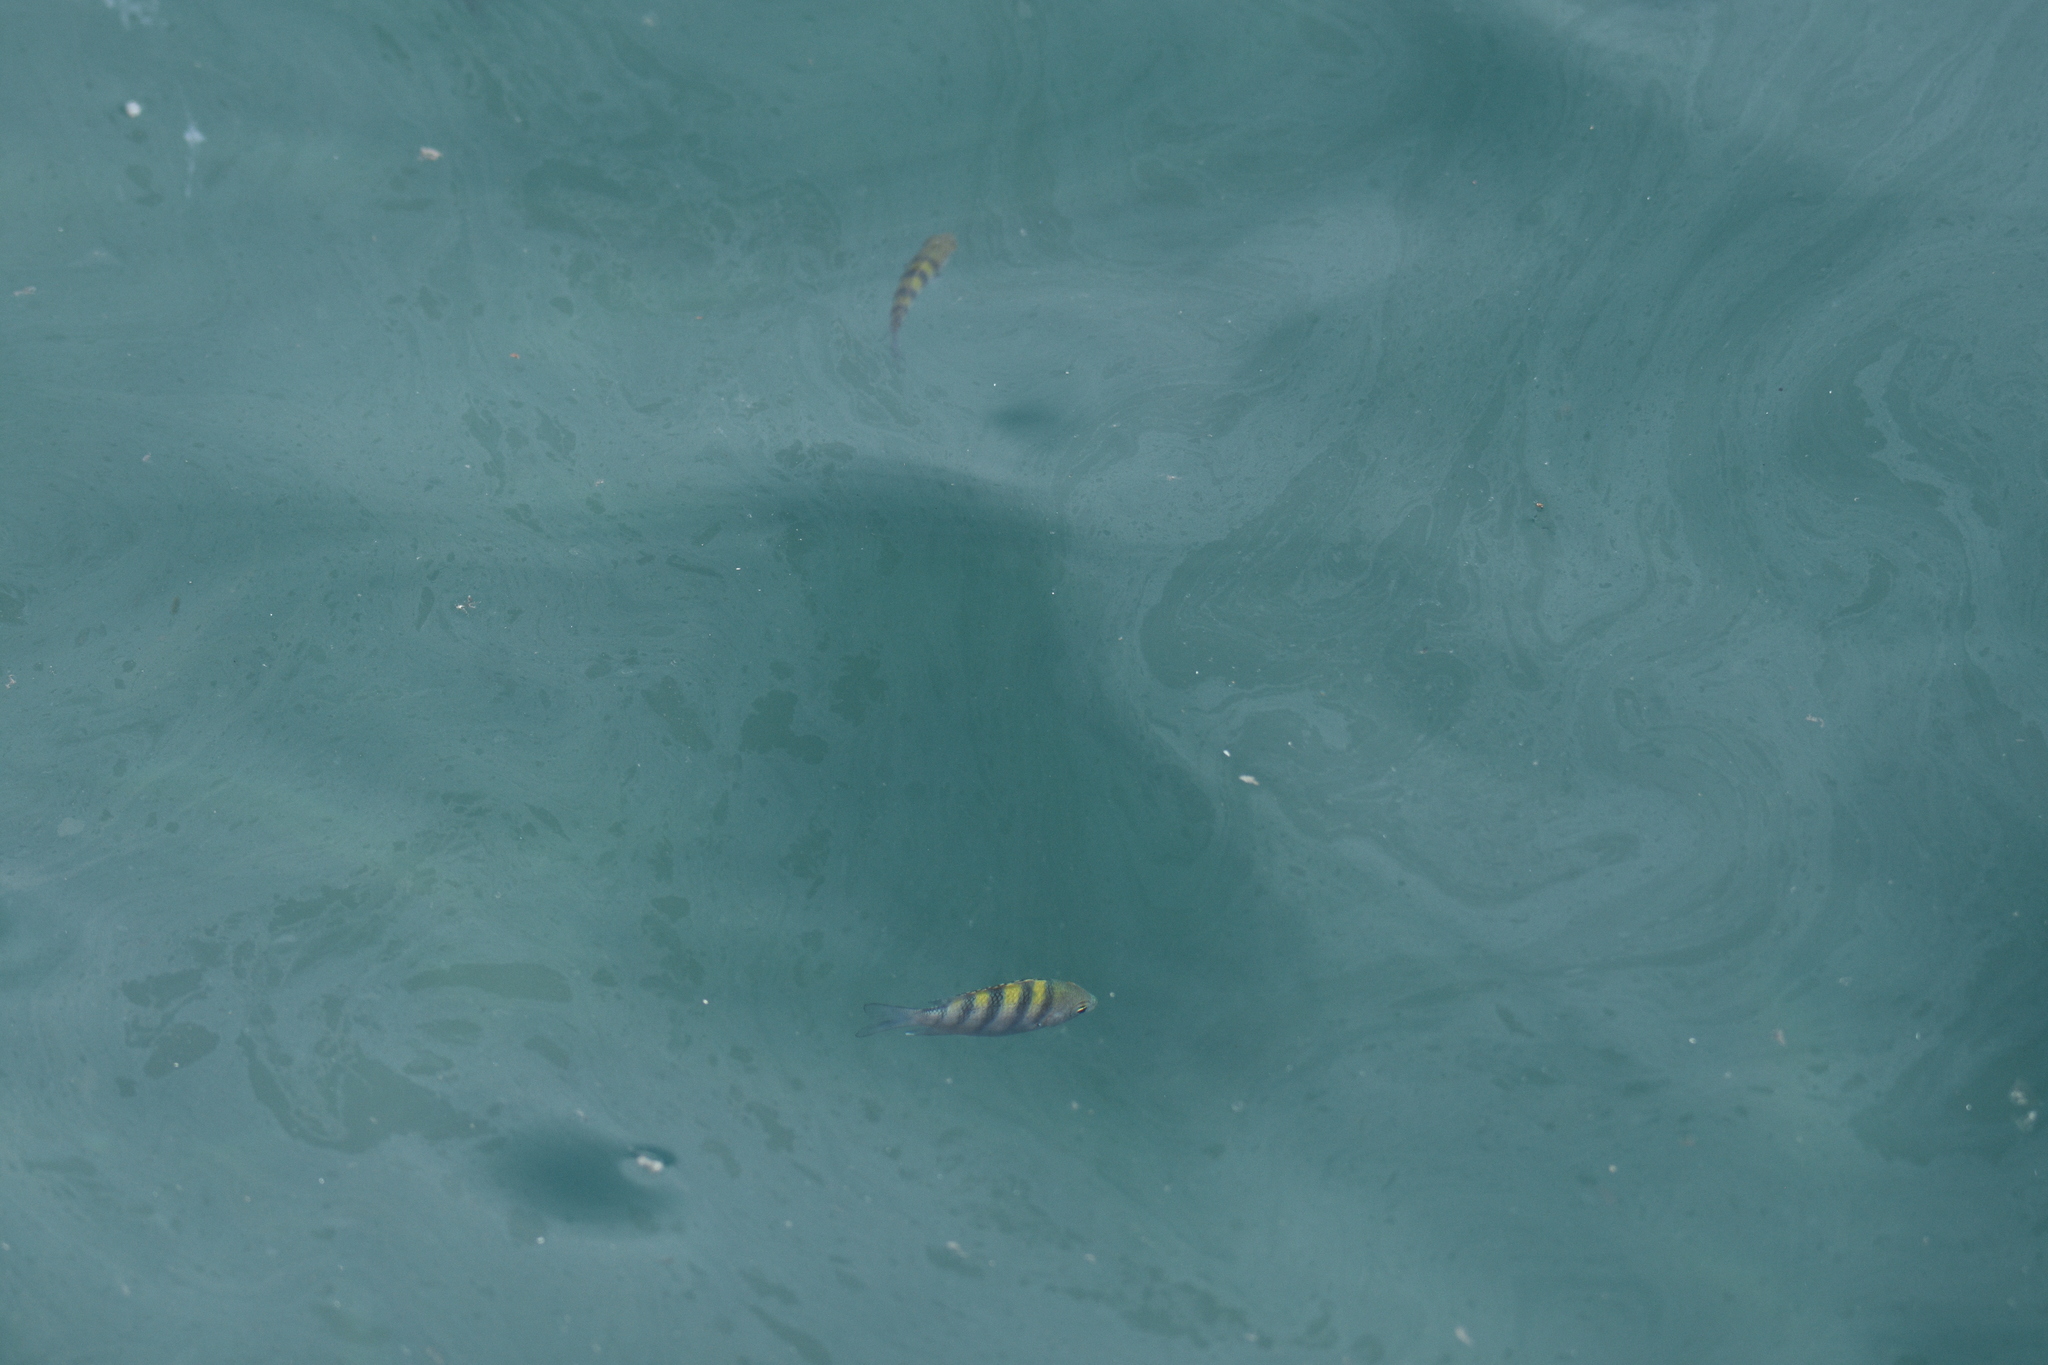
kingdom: Animalia
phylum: Chordata
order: Perciformes
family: Pomacentridae
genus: Abudefduf
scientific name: Abudefduf saxatilis
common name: Sergeant major
